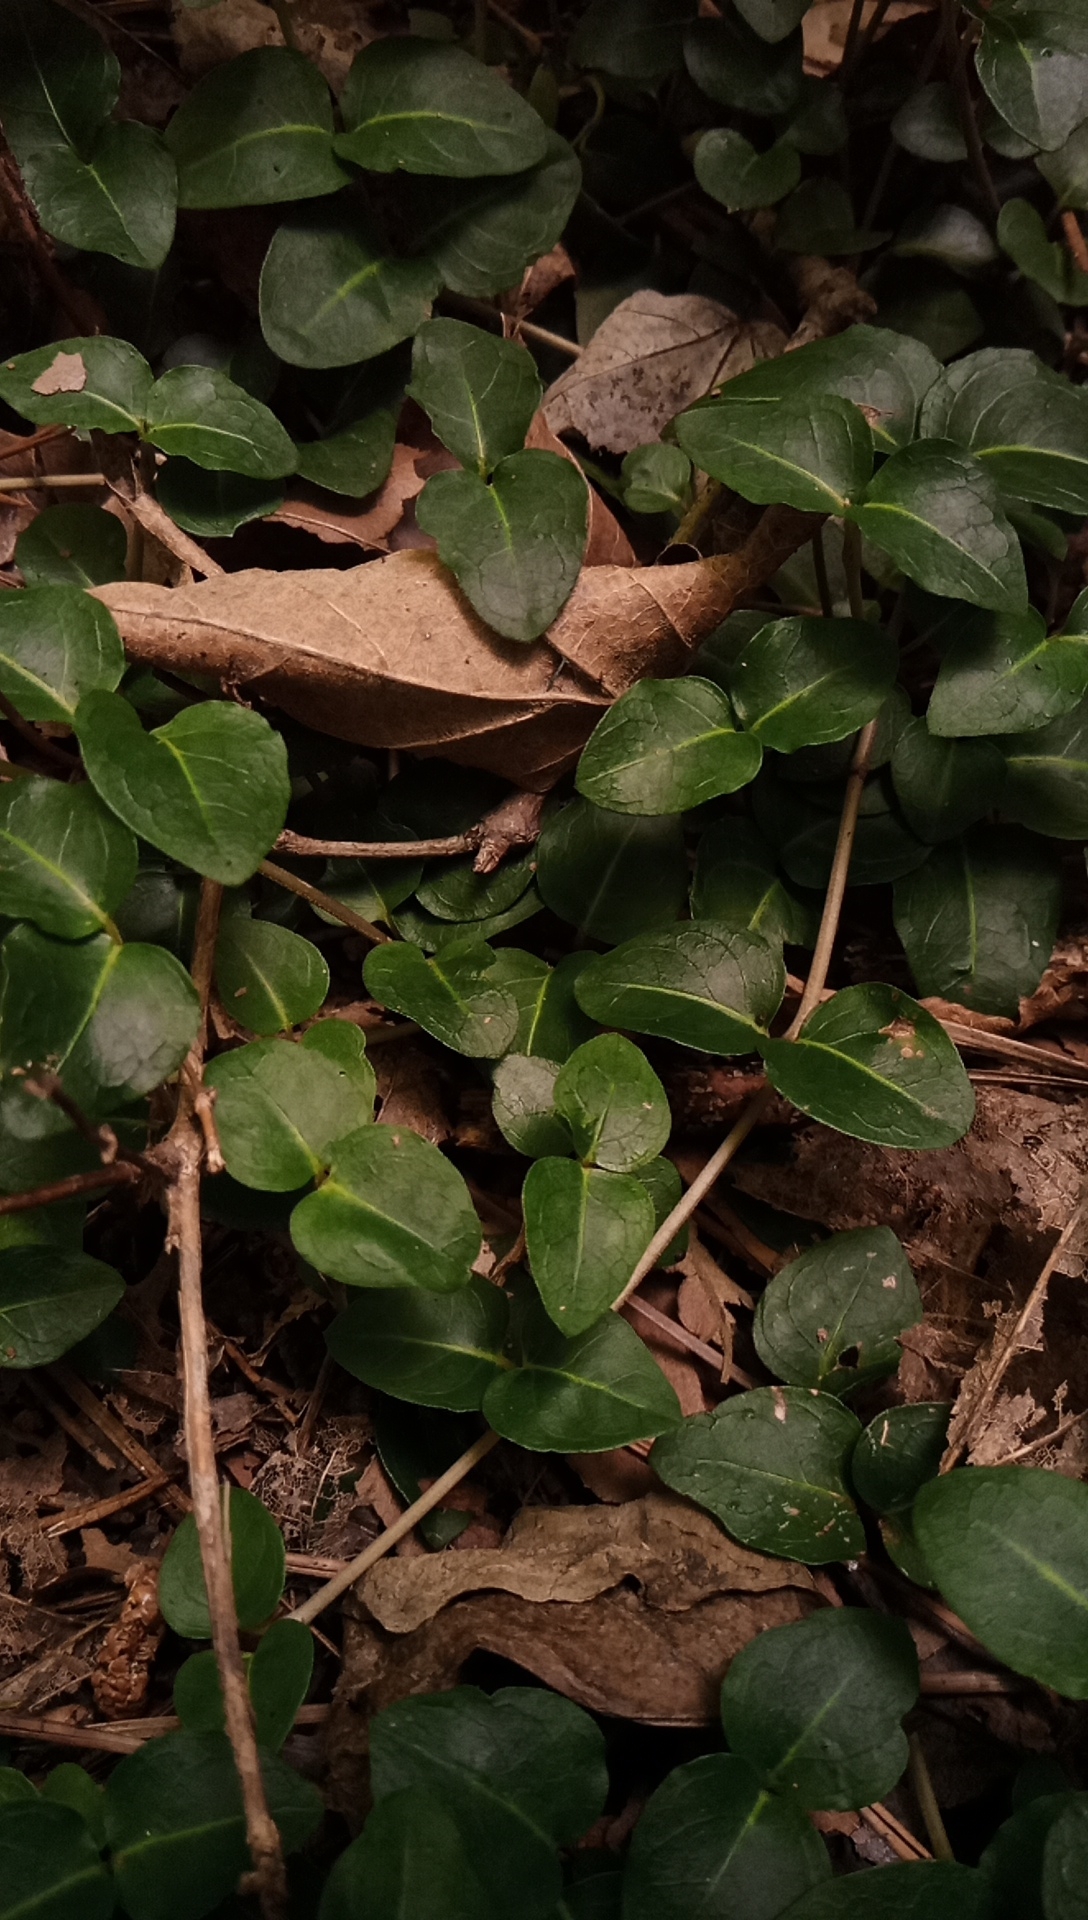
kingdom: Plantae
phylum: Tracheophyta
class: Magnoliopsida
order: Gentianales
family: Rubiaceae
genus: Mitchella
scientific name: Mitchella repens
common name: Partridge-berry
